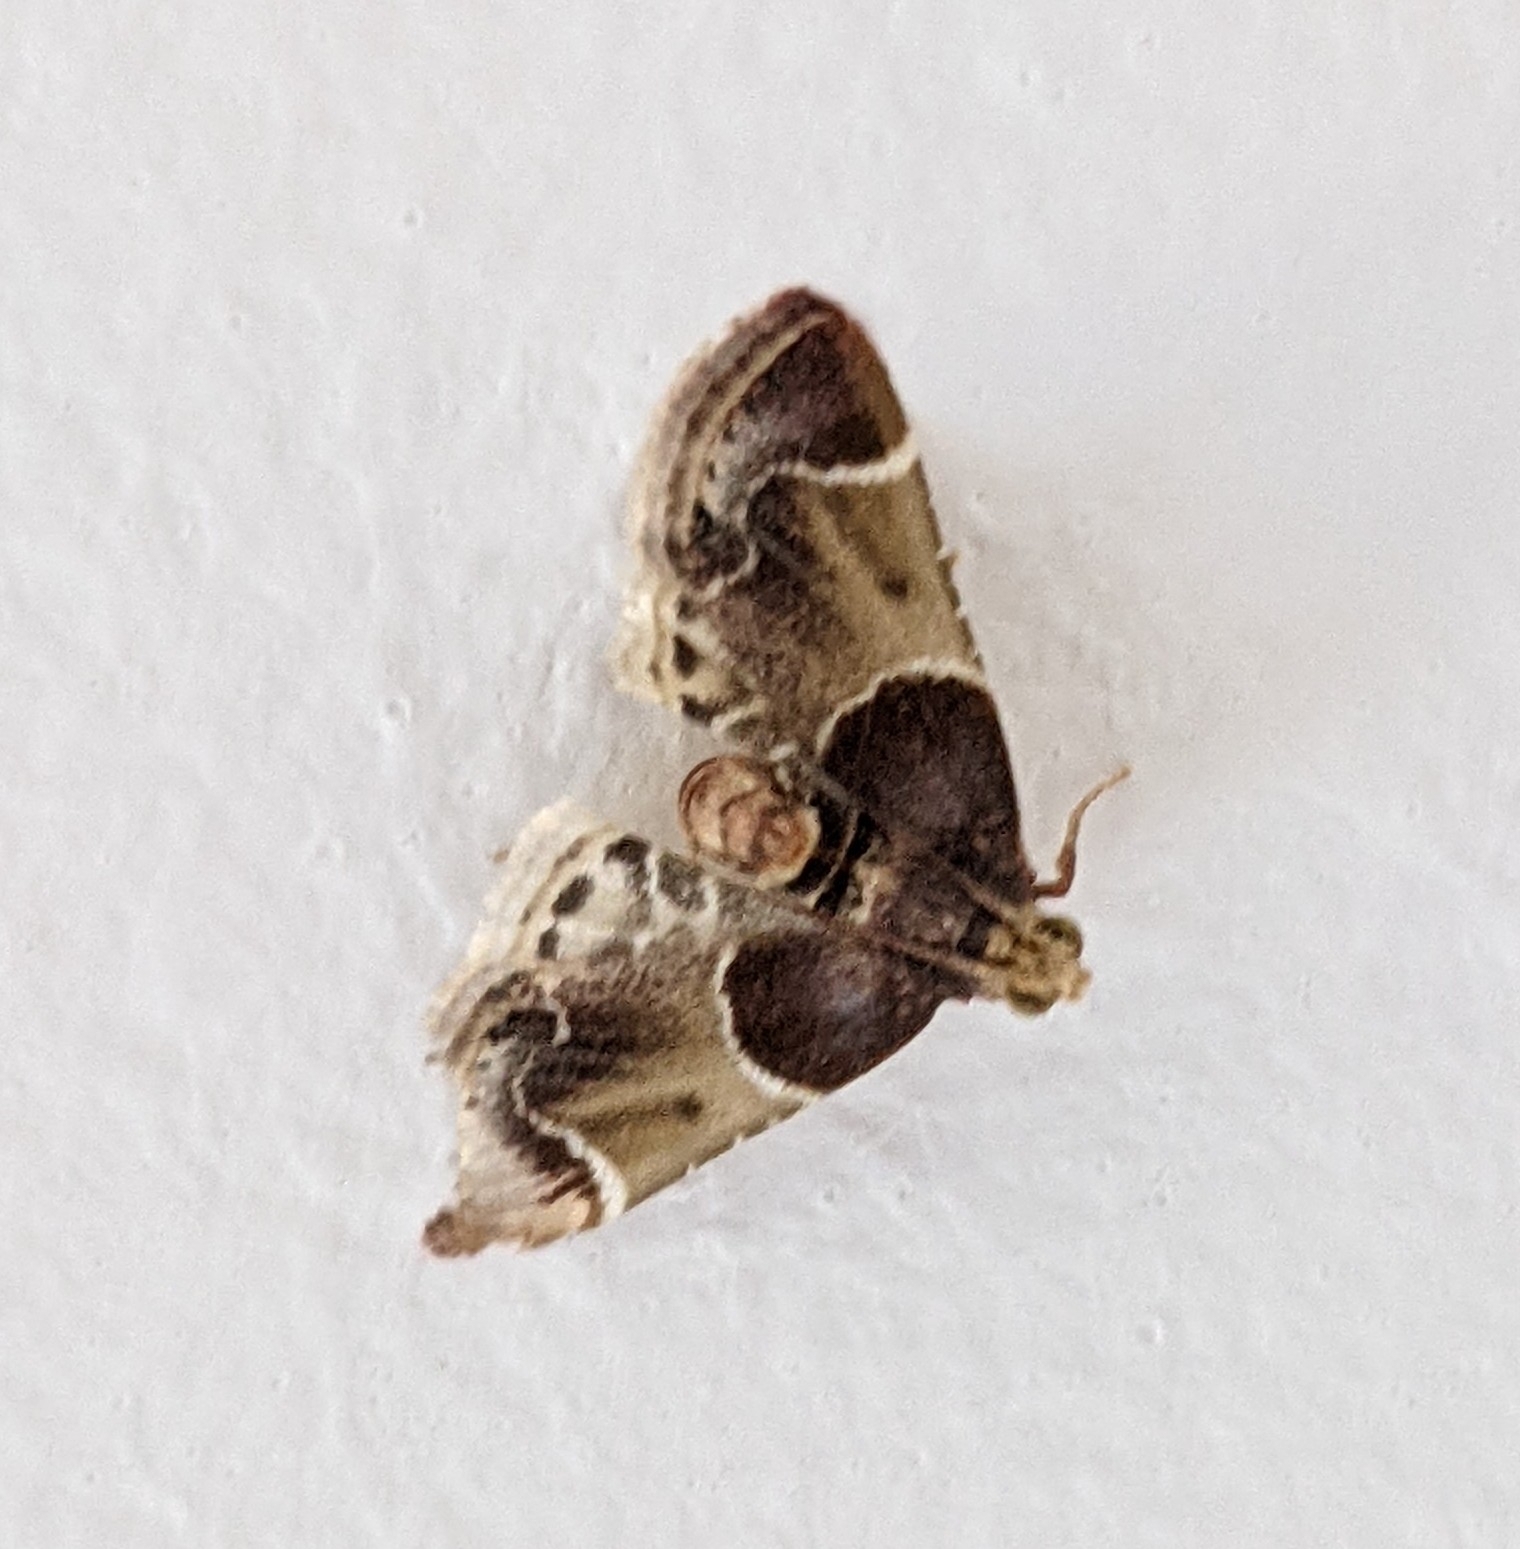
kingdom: Animalia
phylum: Arthropoda
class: Insecta
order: Lepidoptera
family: Pyralidae
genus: Pyralis
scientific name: Pyralis farinalis
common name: Meal moth
